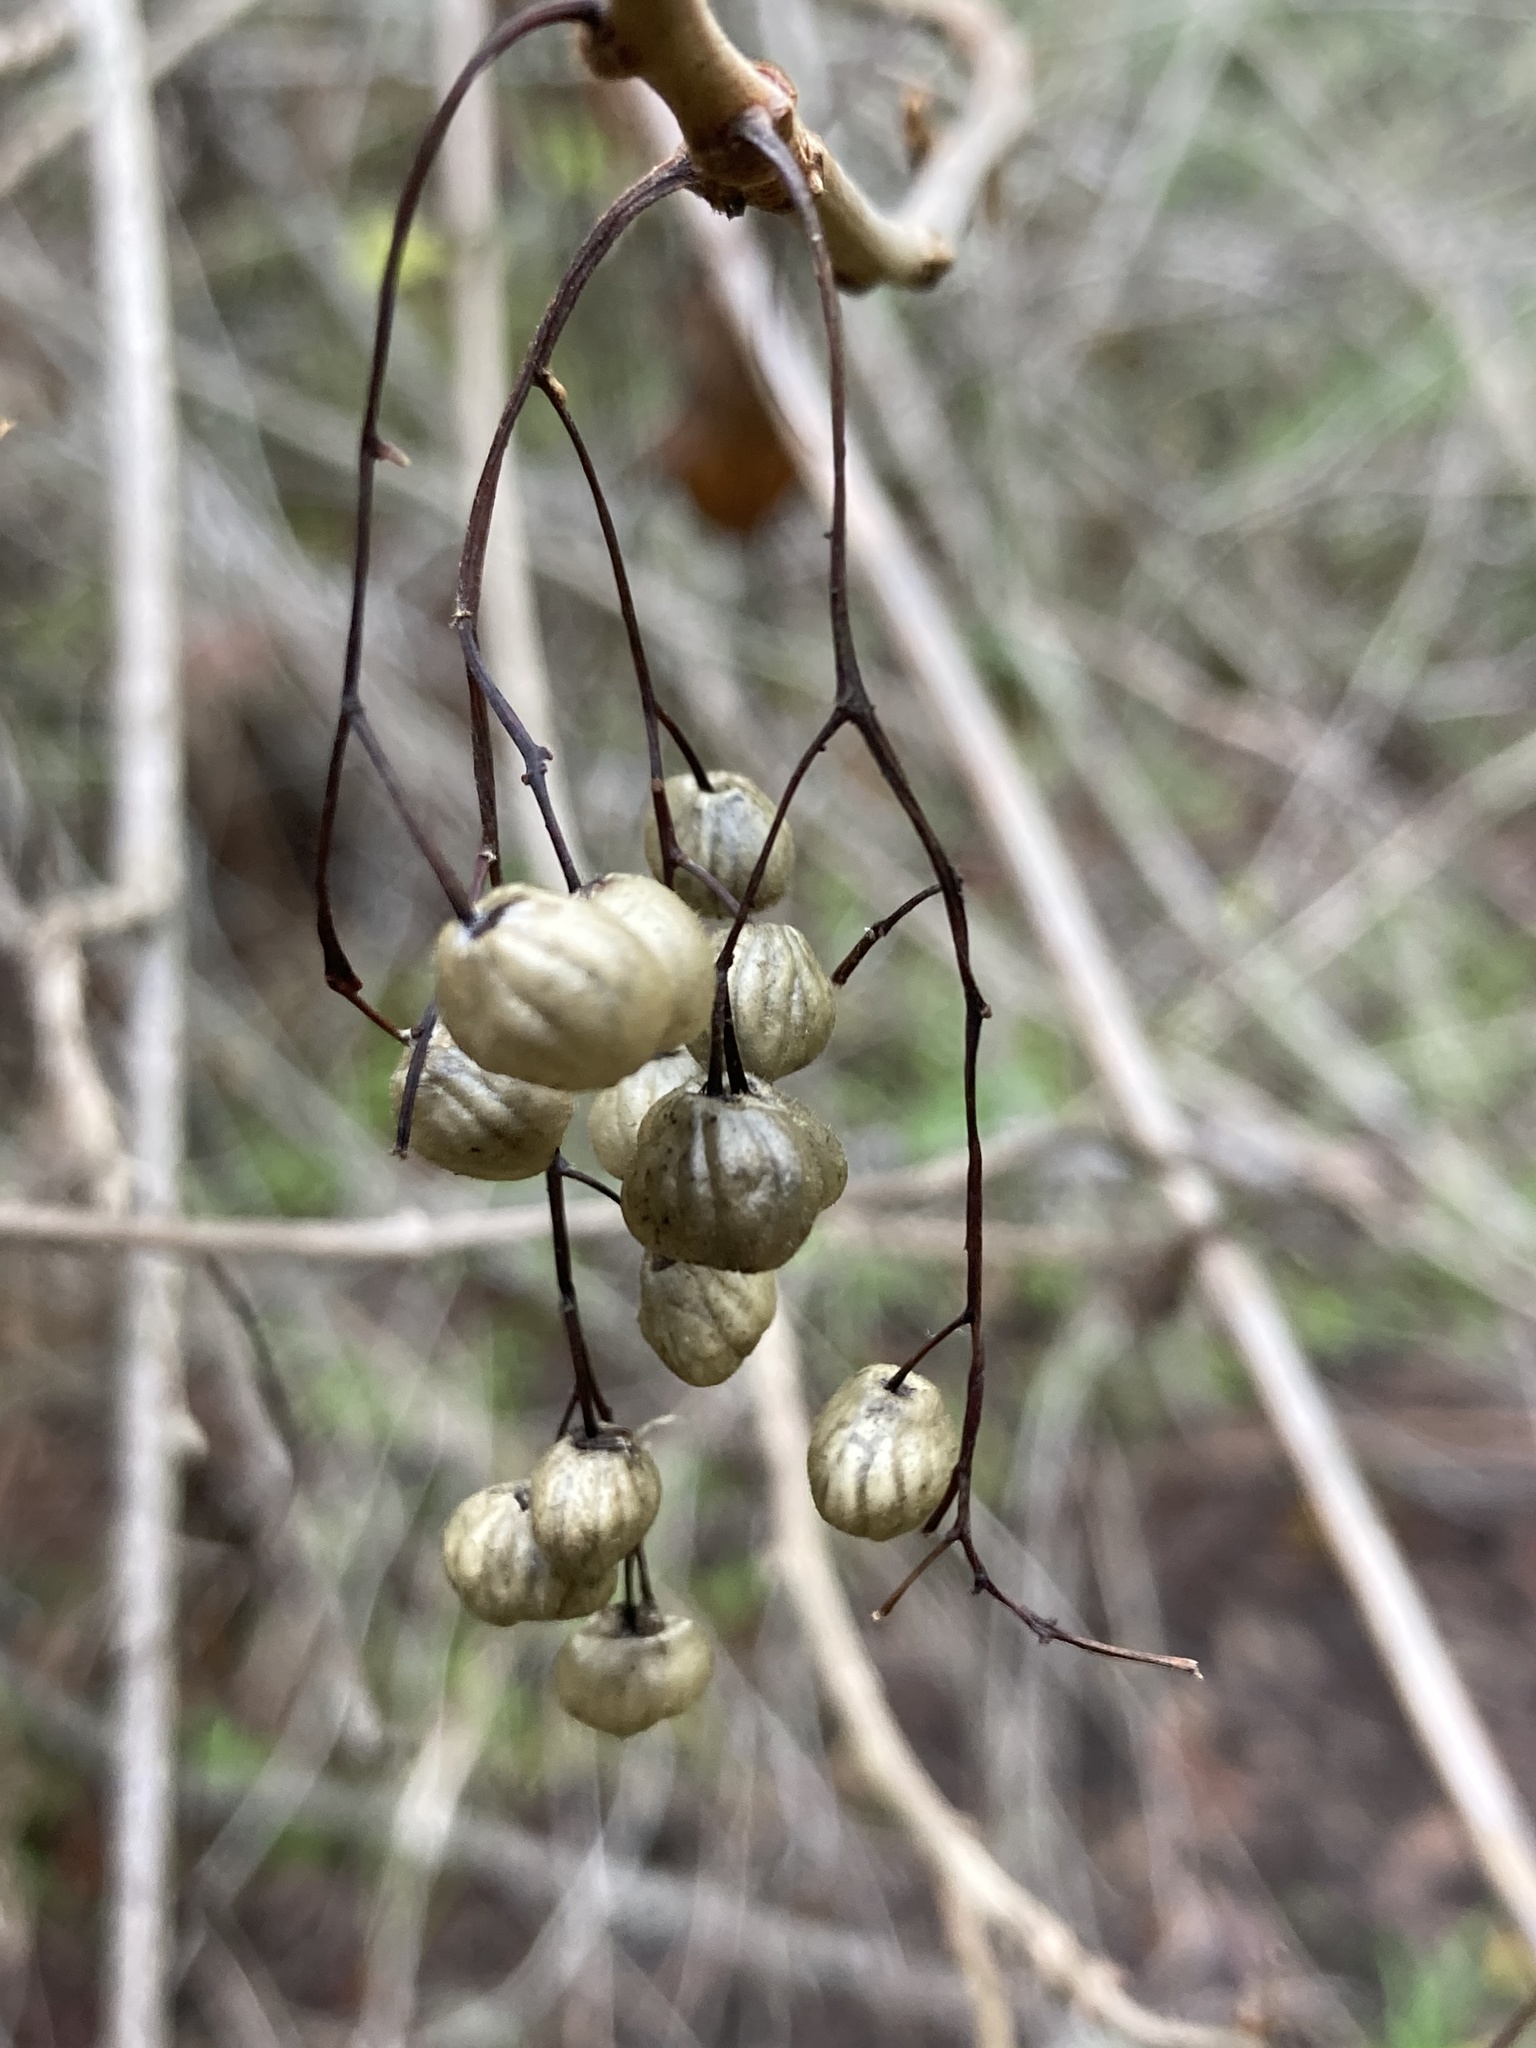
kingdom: Plantae
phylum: Tracheophyta
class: Magnoliopsida
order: Sapindales
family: Anacardiaceae
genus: Toxicodendron
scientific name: Toxicodendron diversilobum
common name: Pacific poison-oak
